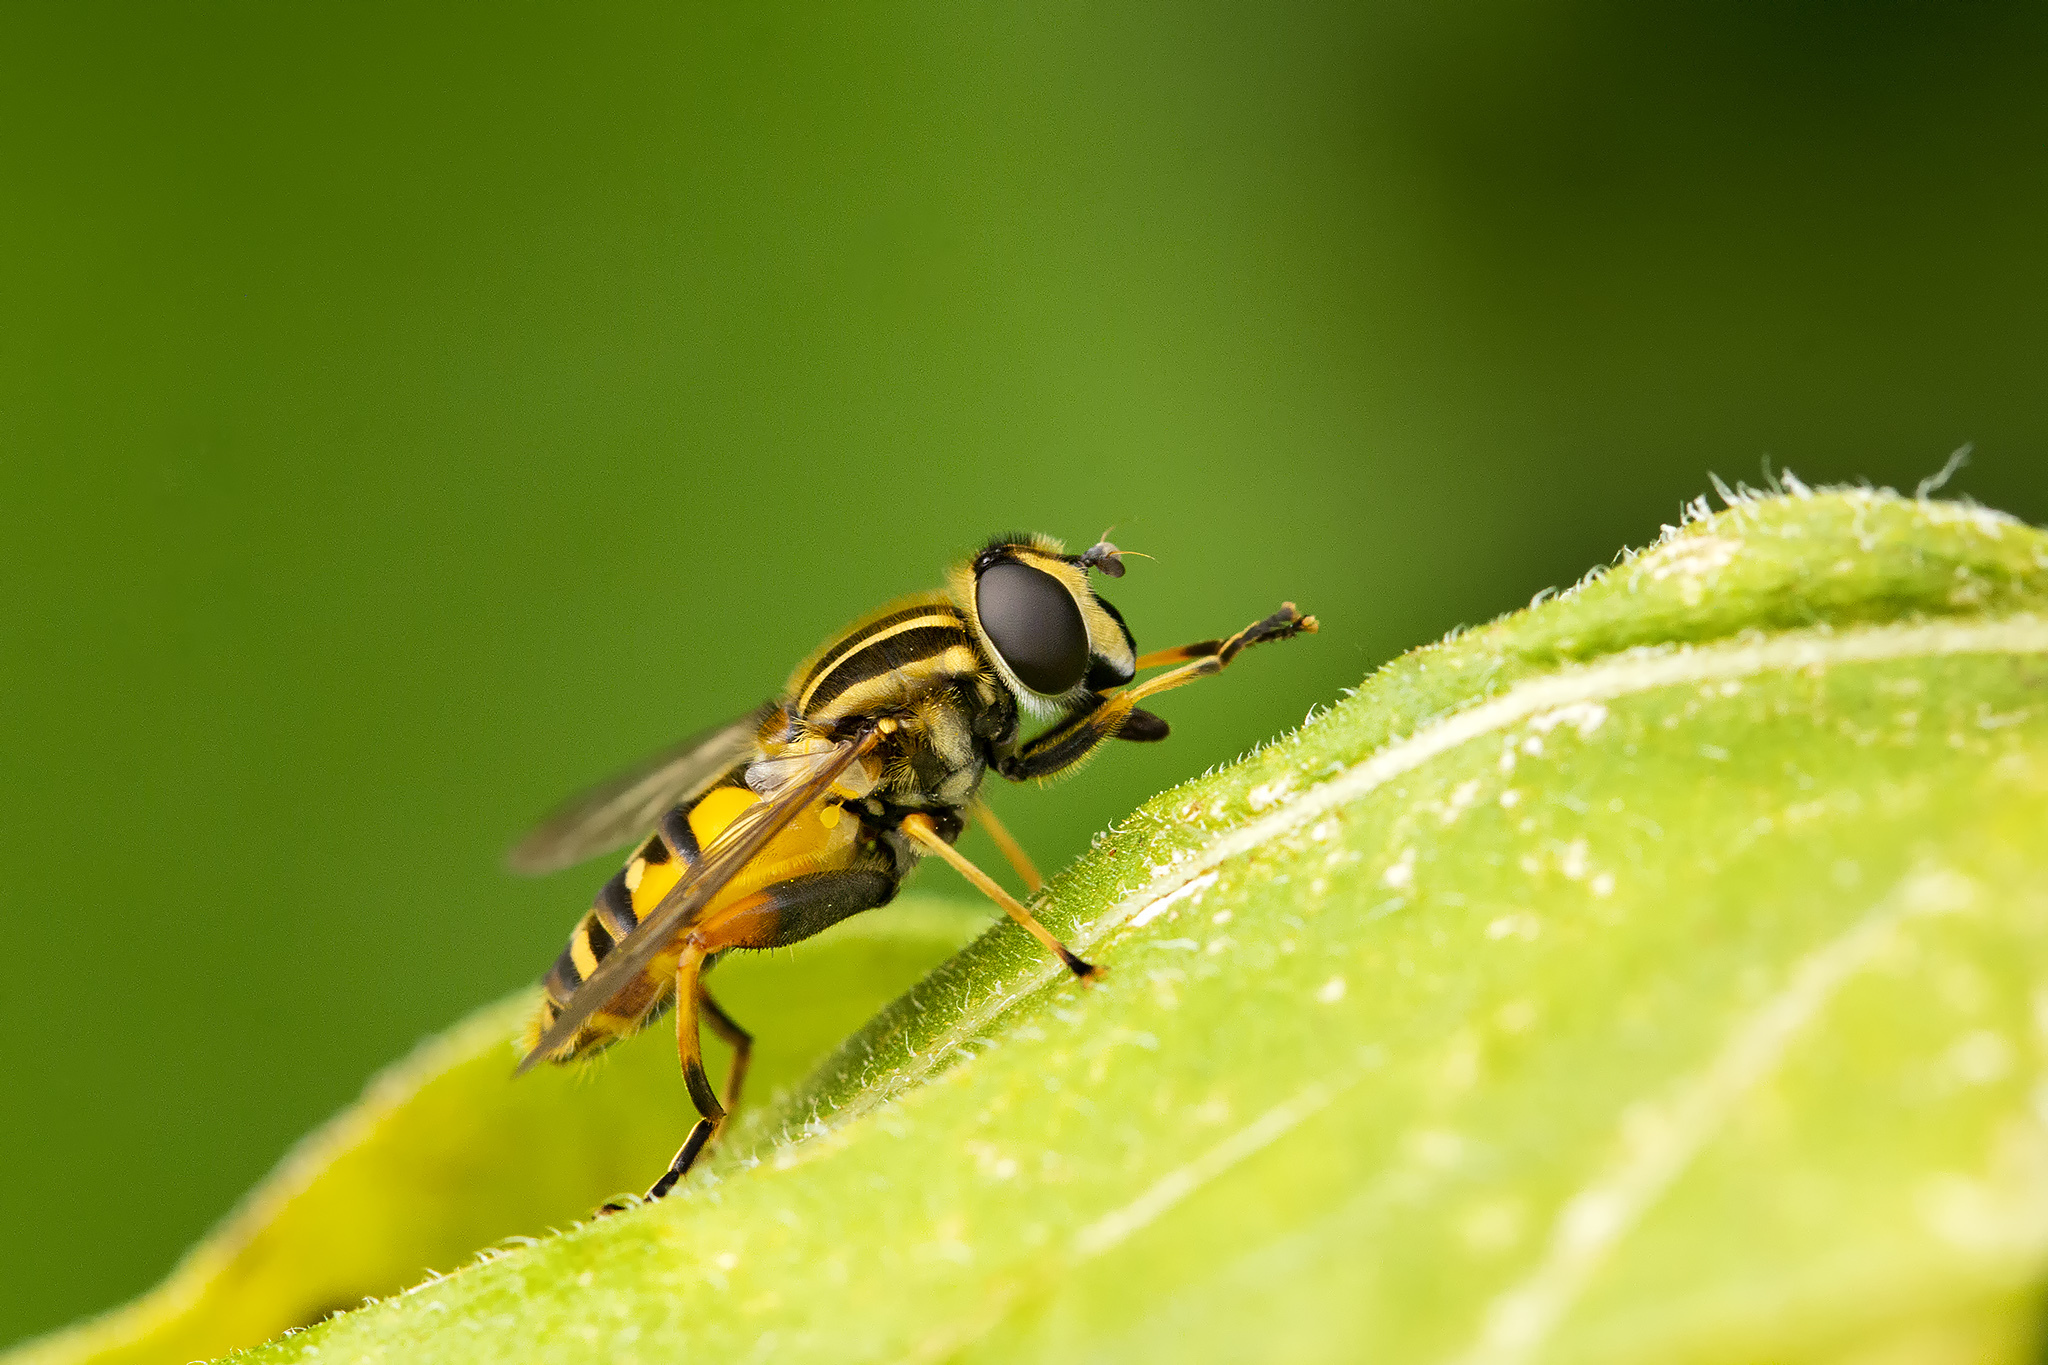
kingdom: Animalia
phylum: Arthropoda
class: Insecta
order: Diptera
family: Syrphidae
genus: Helophilus
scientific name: Helophilus pendulus
